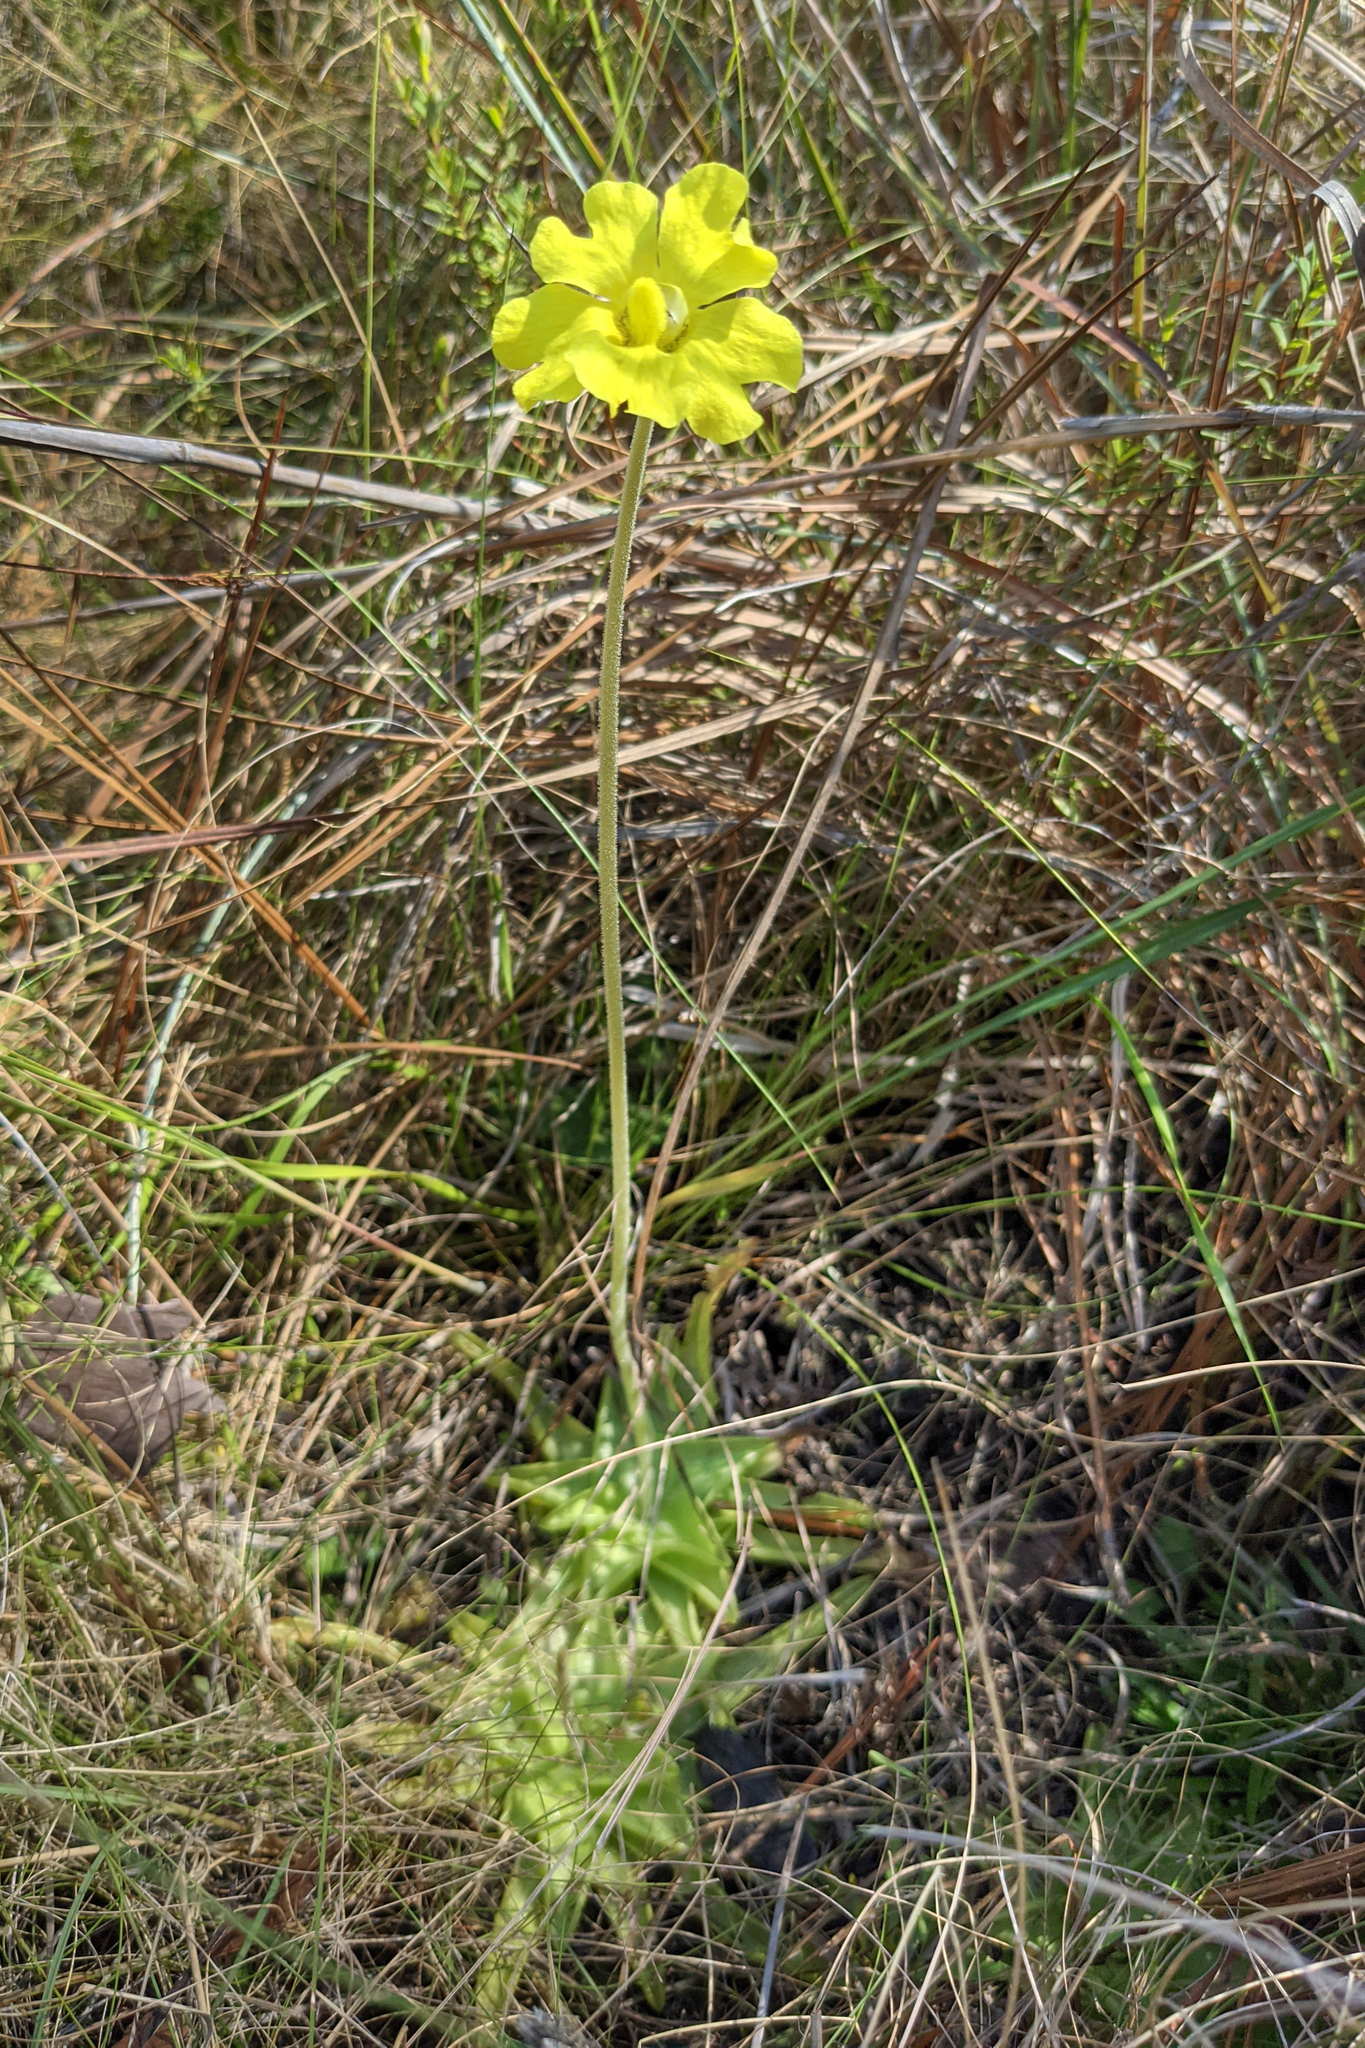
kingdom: Plantae
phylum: Tracheophyta
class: Magnoliopsida
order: Lamiales
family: Lentibulariaceae
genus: Pinguicula
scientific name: Pinguicula lutea
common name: Yellow butterwort
